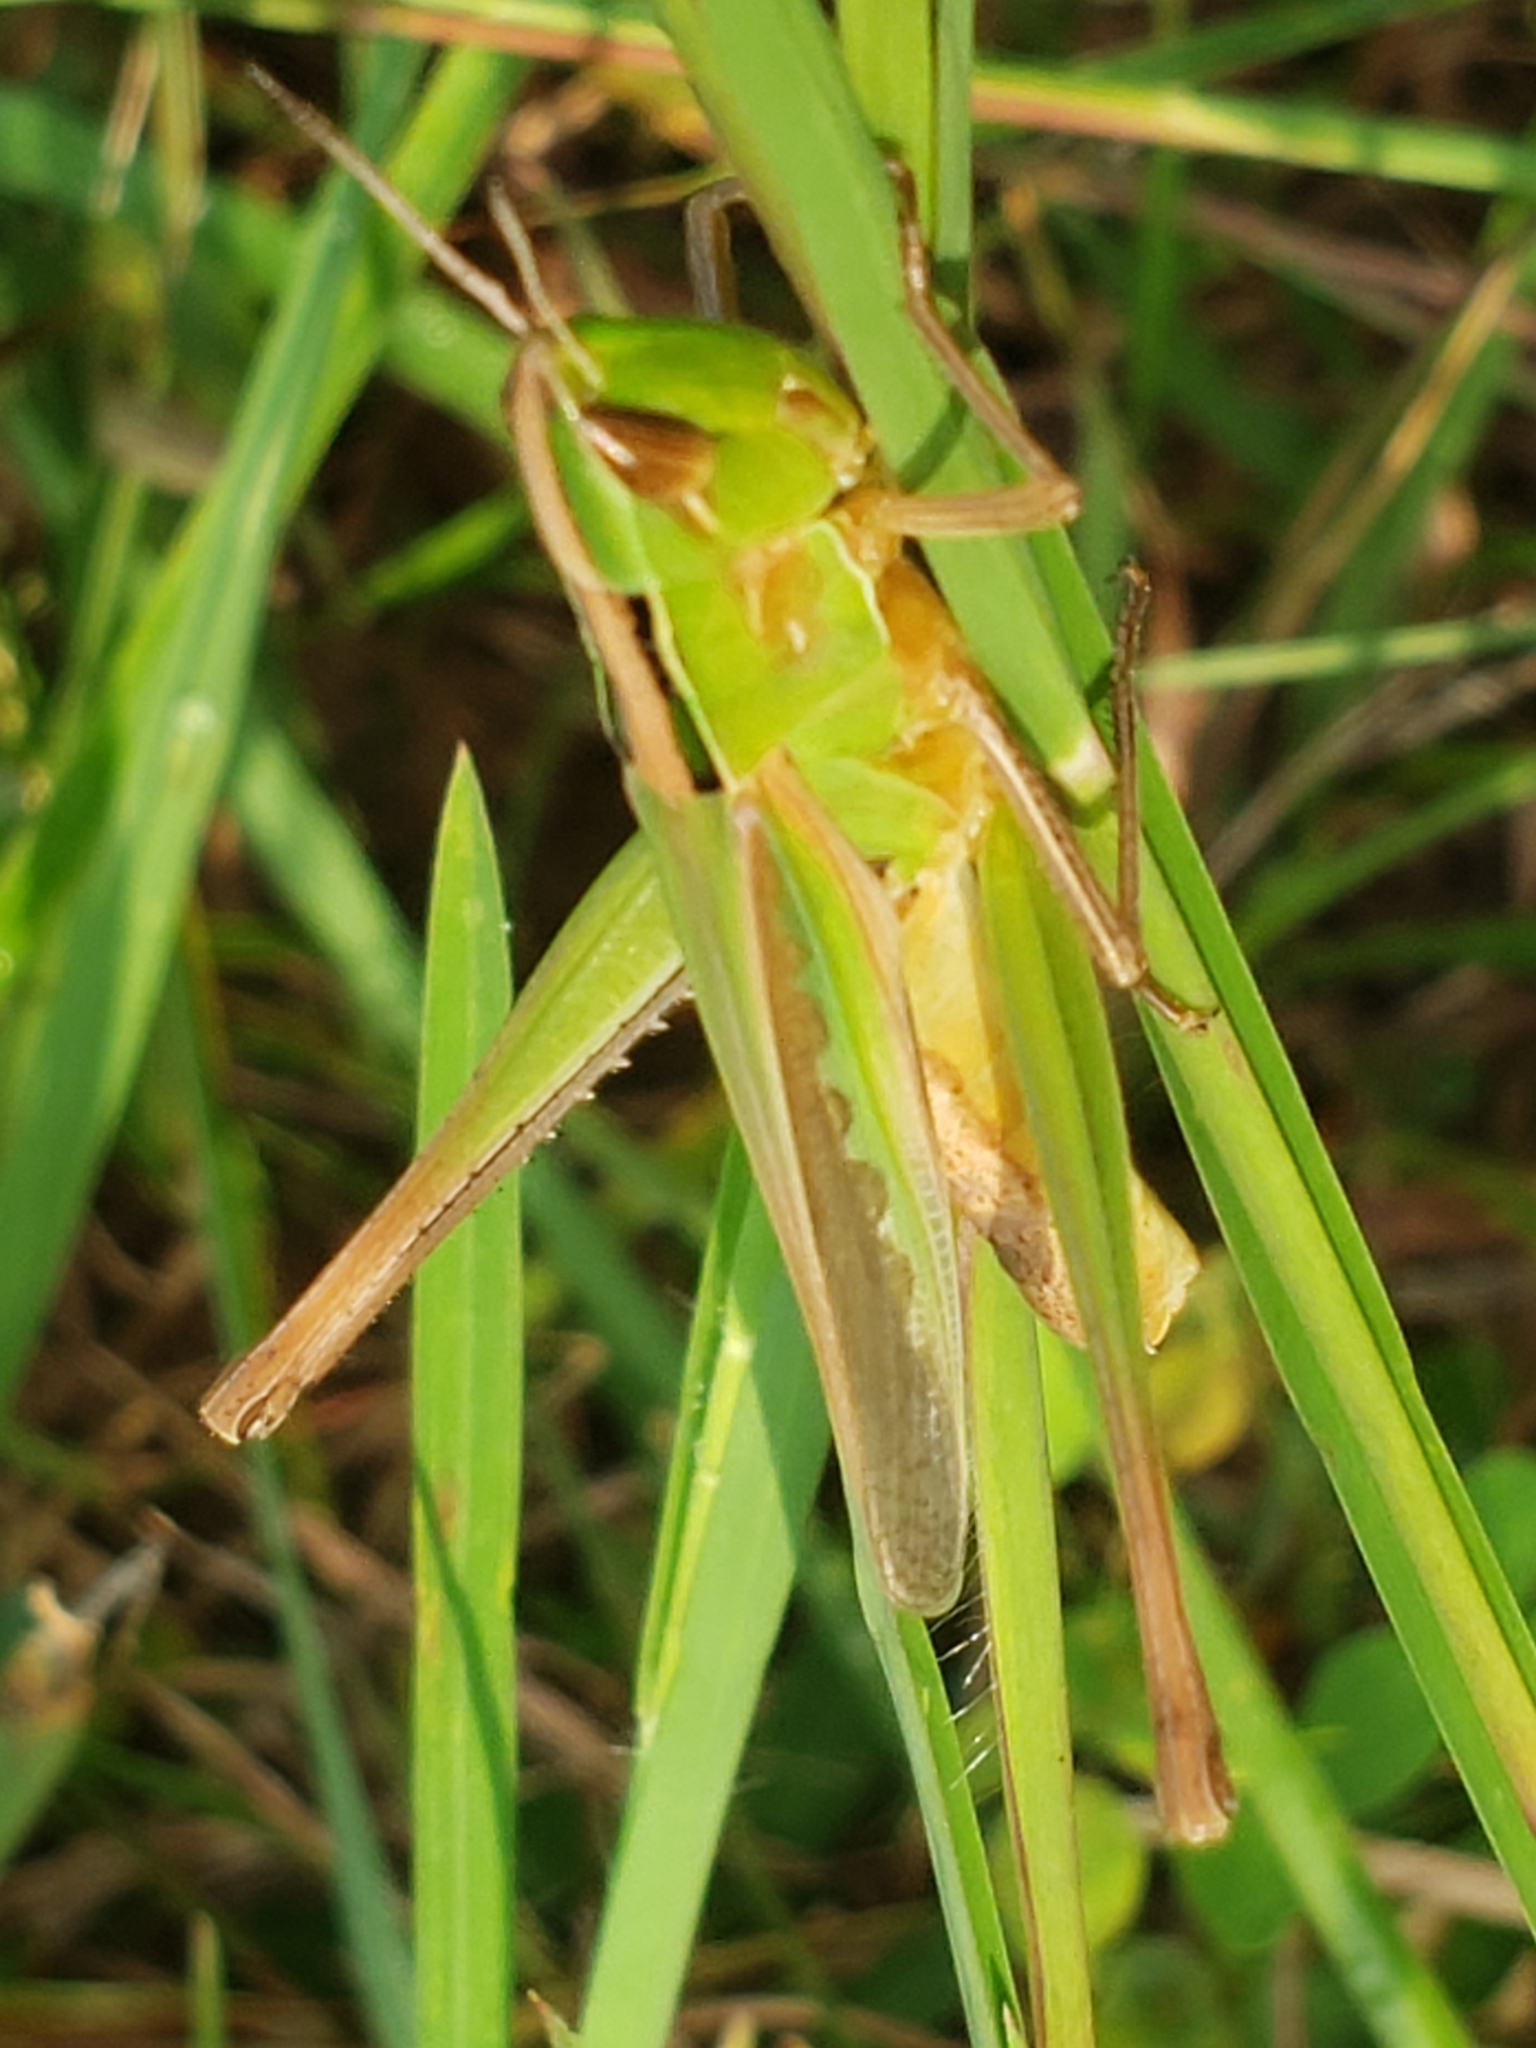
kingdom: Animalia
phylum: Arthropoda
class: Insecta
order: Orthoptera
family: Acrididae
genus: Syrbula
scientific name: Syrbula admirabilis
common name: Handsome grasshopper
